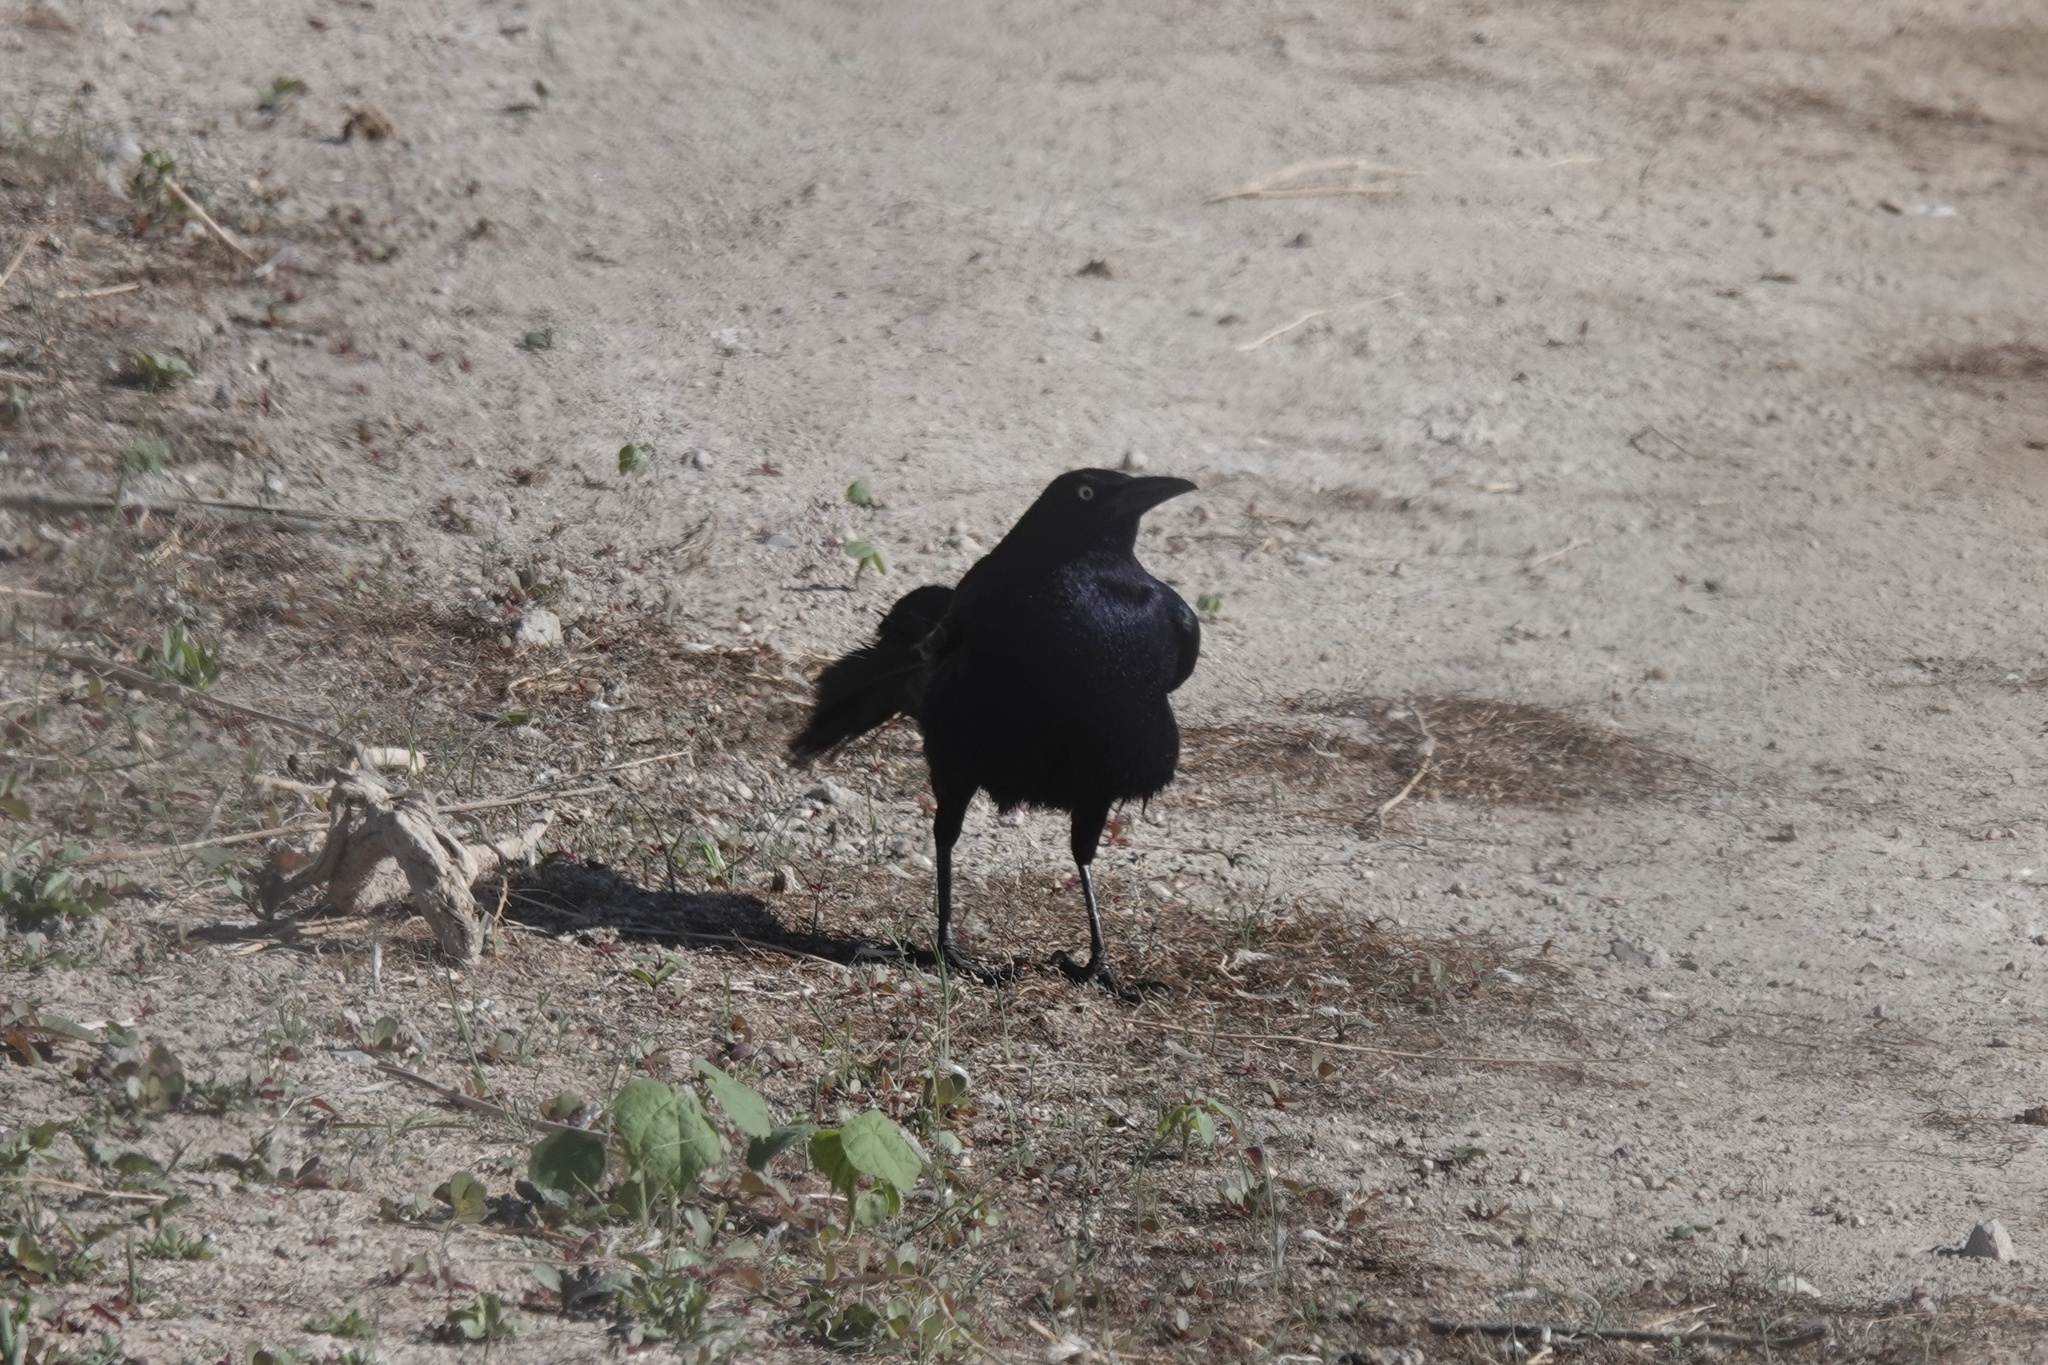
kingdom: Animalia
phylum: Chordata
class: Aves
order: Passeriformes
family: Icteridae
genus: Quiscalus
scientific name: Quiscalus mexicanus
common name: Great-tailed grackle
